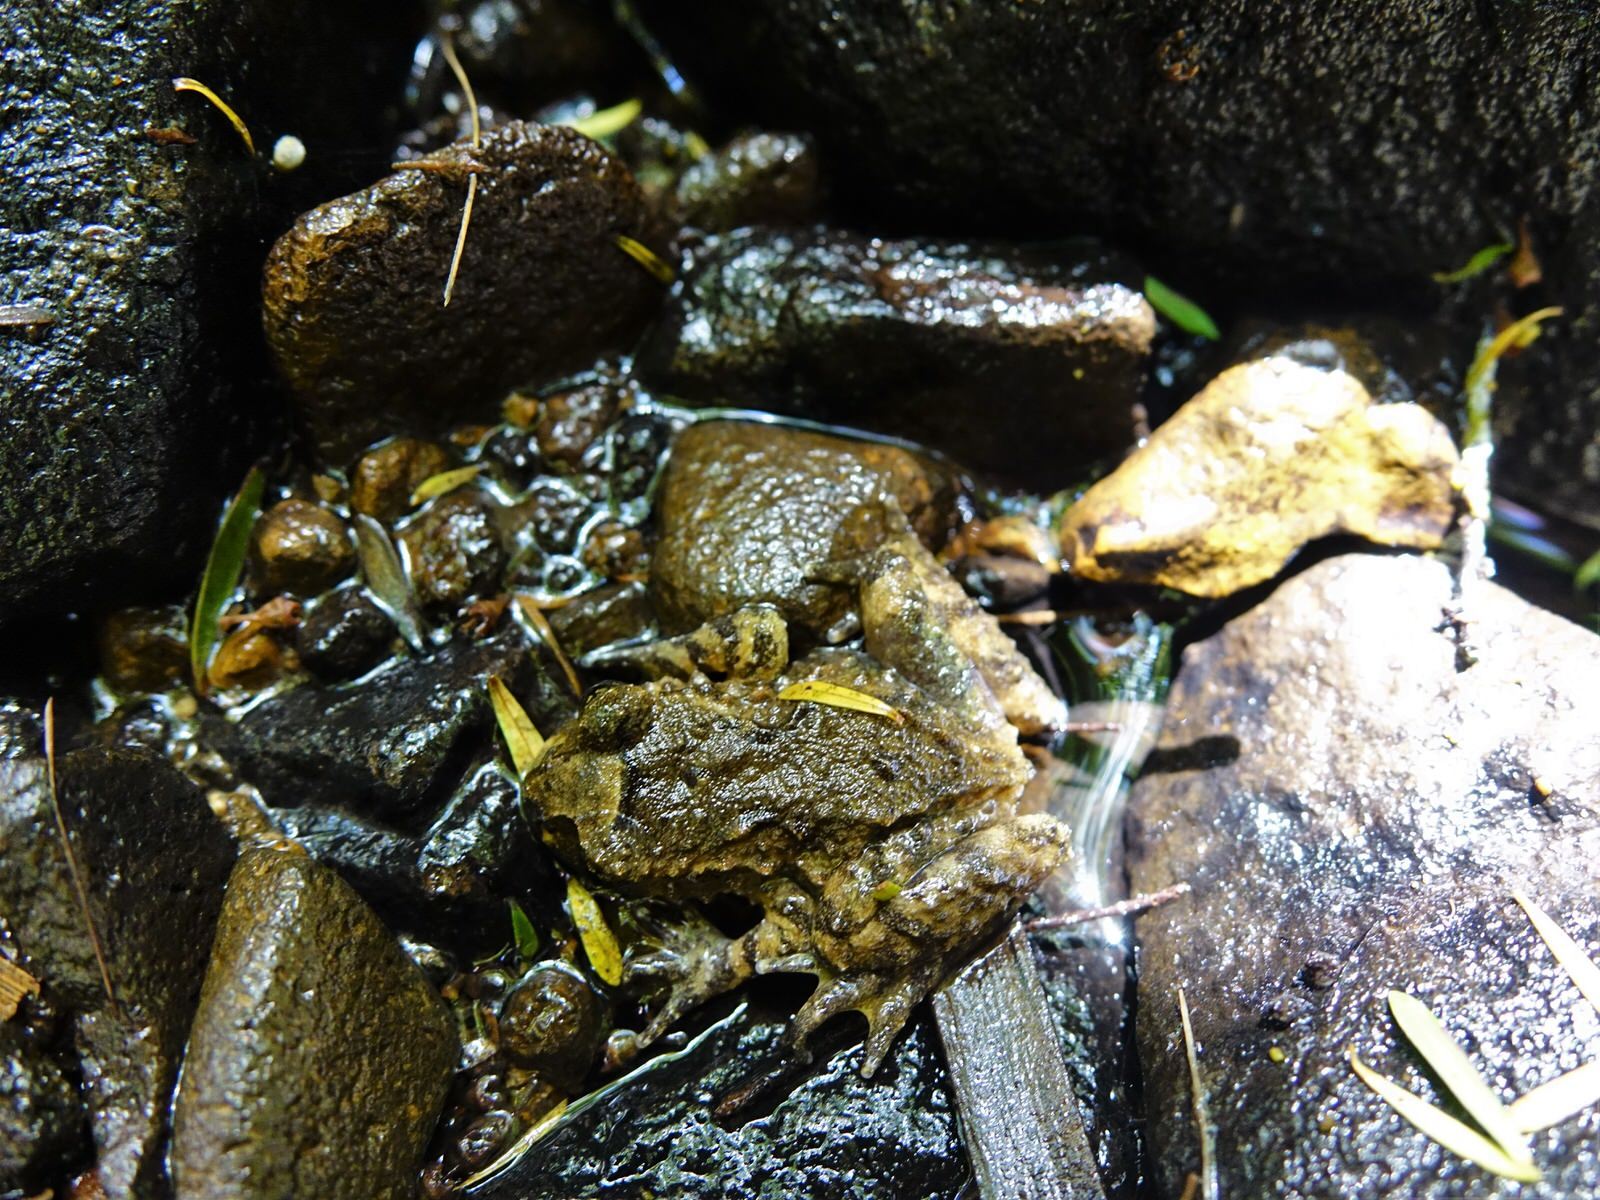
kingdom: Animalia
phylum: Chordata
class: Amphibia
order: Anura
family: Leiopelmatidae
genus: Leiopelma
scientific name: Leiopelma hochstetteri
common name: Hochstetters new zealand frog
